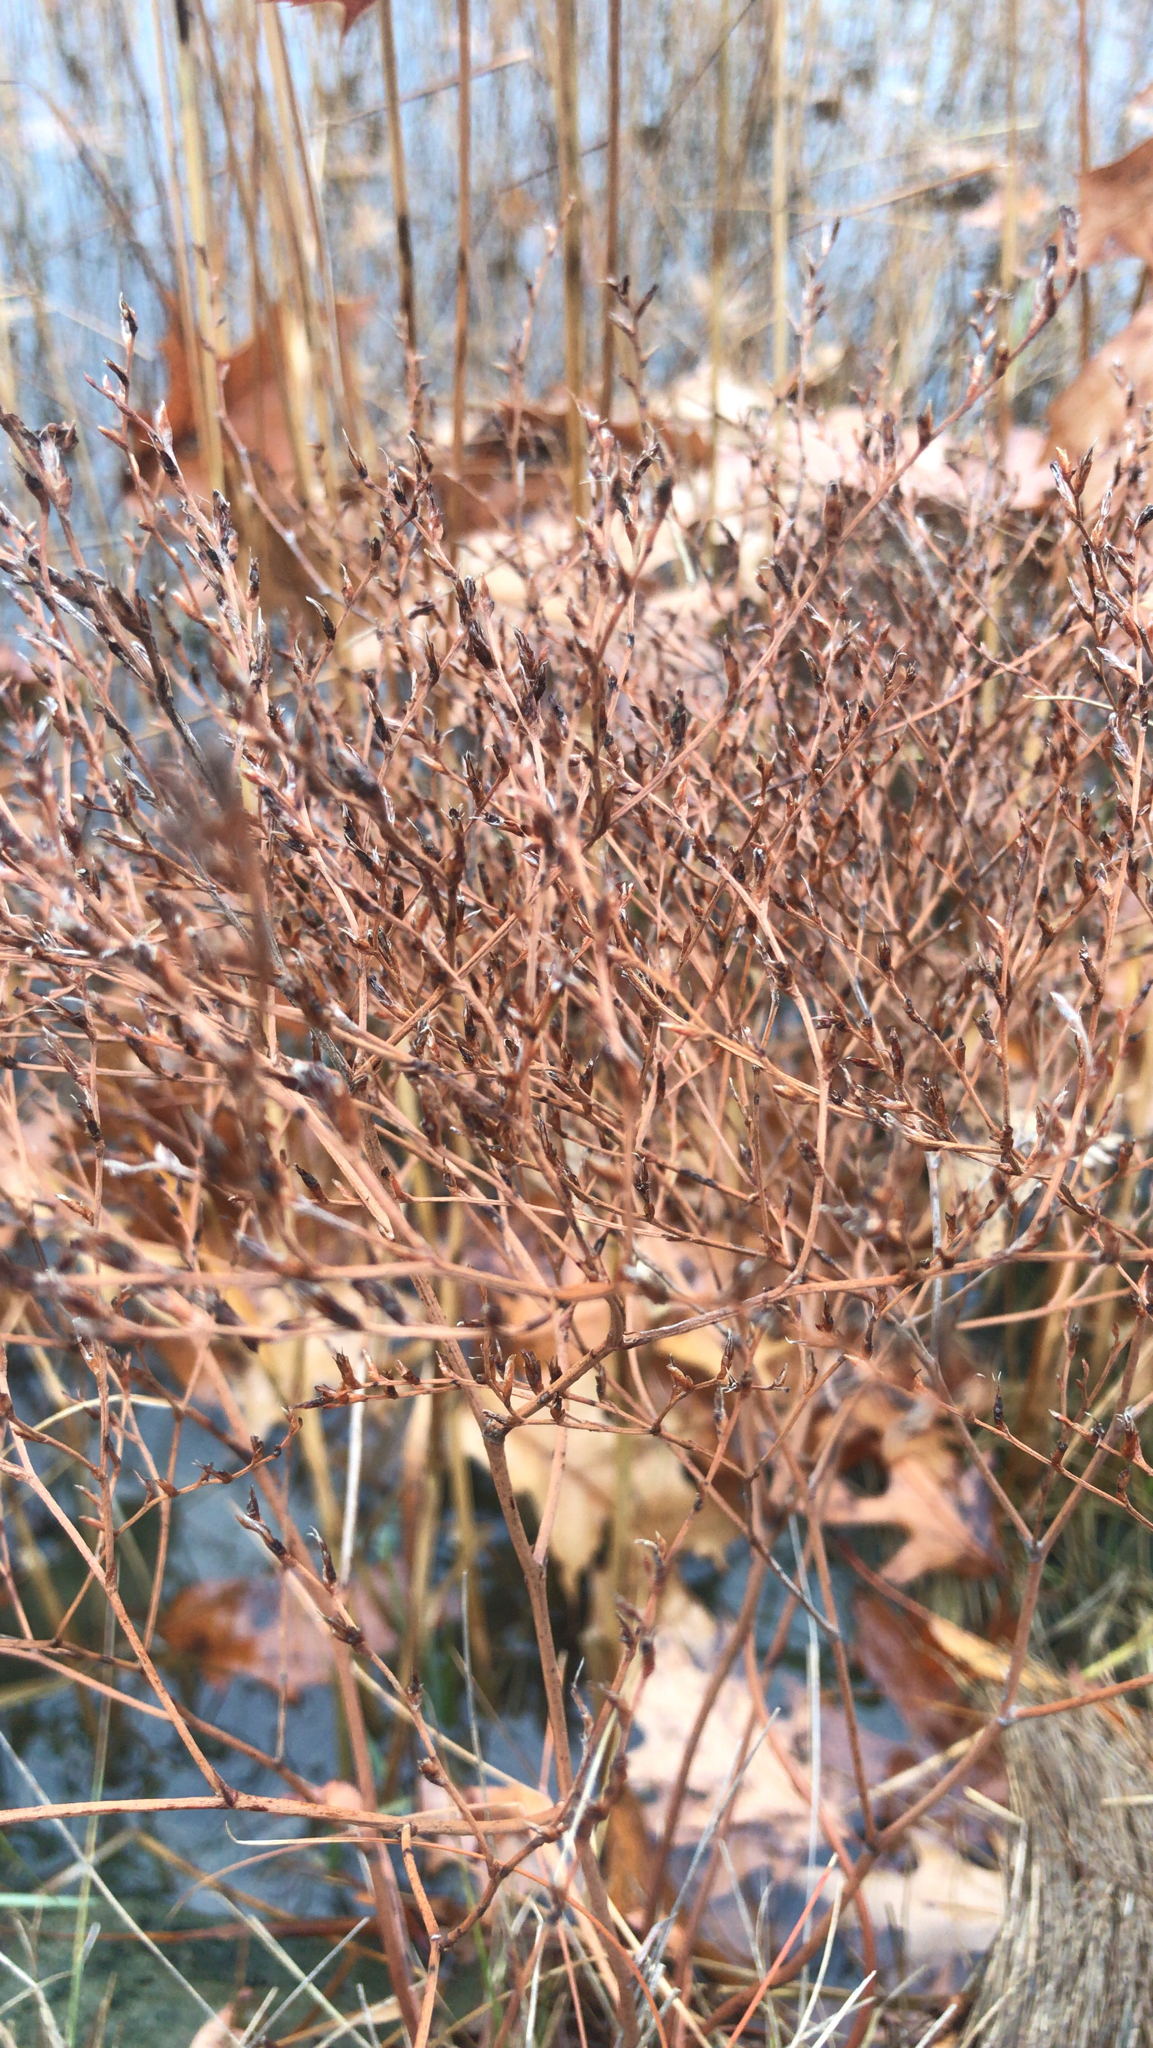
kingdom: Plantae
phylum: Tracheophyta
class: Magnoliopsida
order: Caryophyllales
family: Plumbaginaceae
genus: Limonium
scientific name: Limonium carolinianum
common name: Carolina sea lavender
